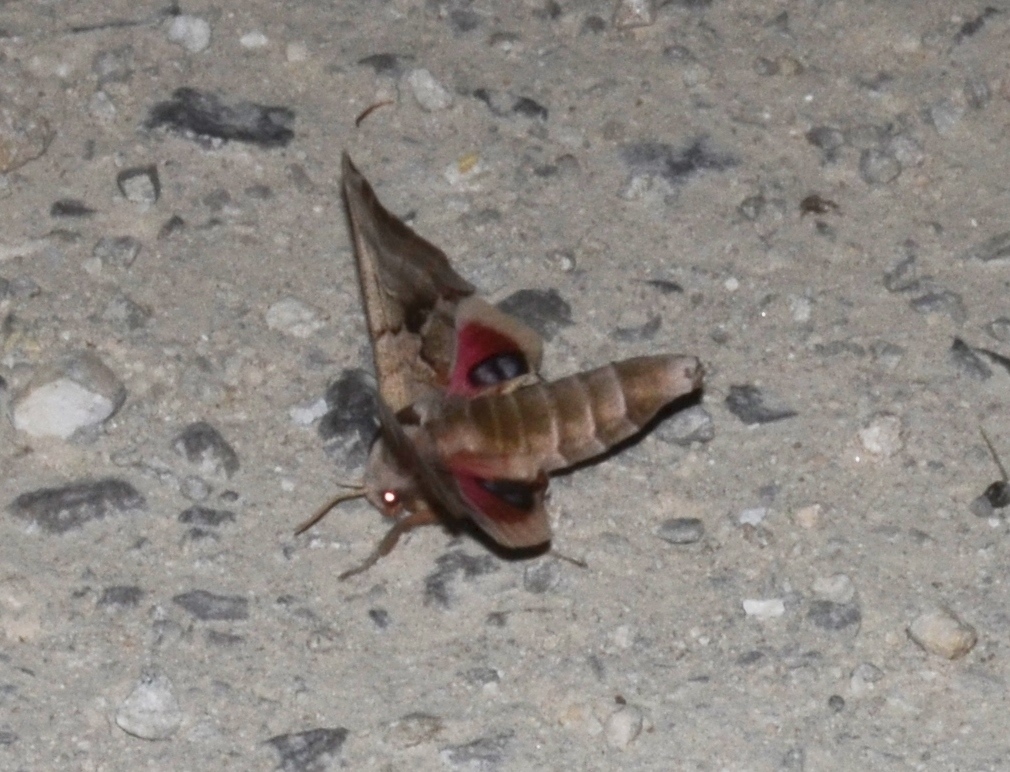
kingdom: Animalia
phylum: Arthropoda
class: Insecta
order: Lepidoptera
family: Sphingidae
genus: Smerinthus
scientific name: Smerinthus jamaicensis
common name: Twin spotted sphinx
